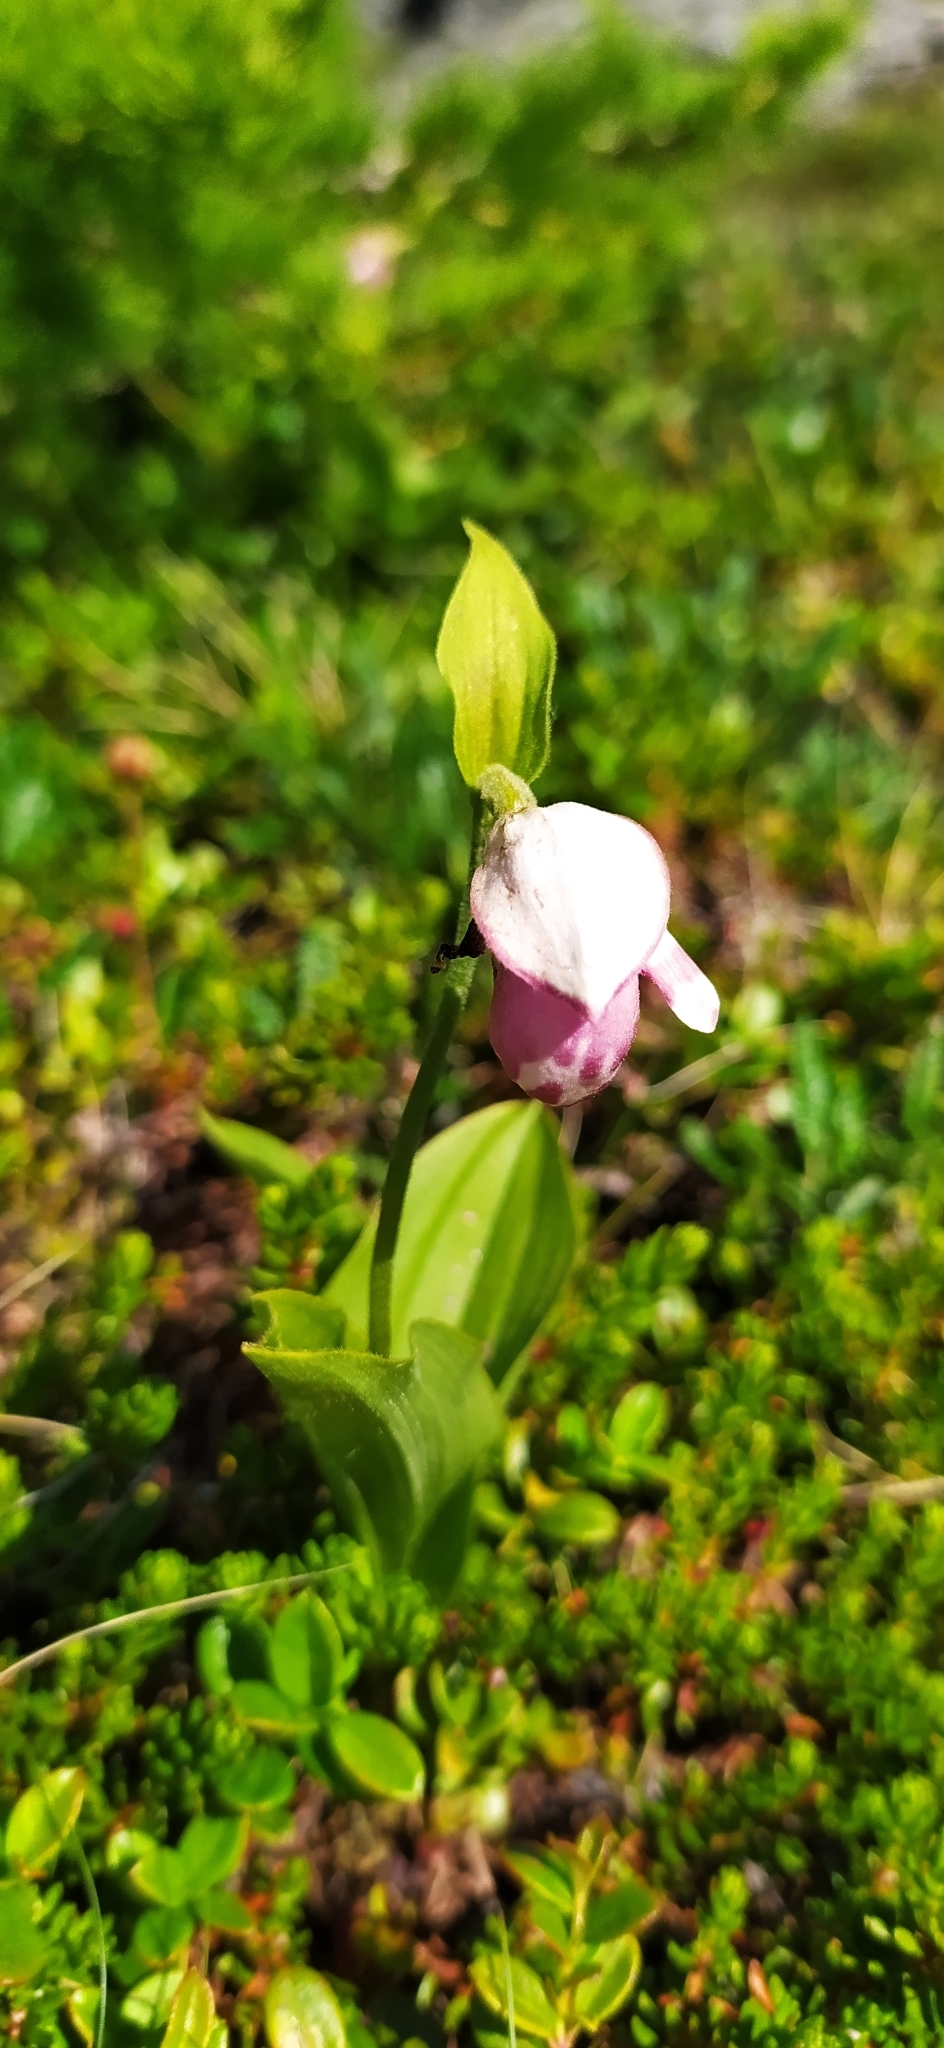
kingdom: Plantae
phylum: Tracheophyta
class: Liliopsida
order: Asparagales
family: Orchidaceae
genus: Cypripedium
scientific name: Cypripedium guttatum
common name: Pink lady slipper
